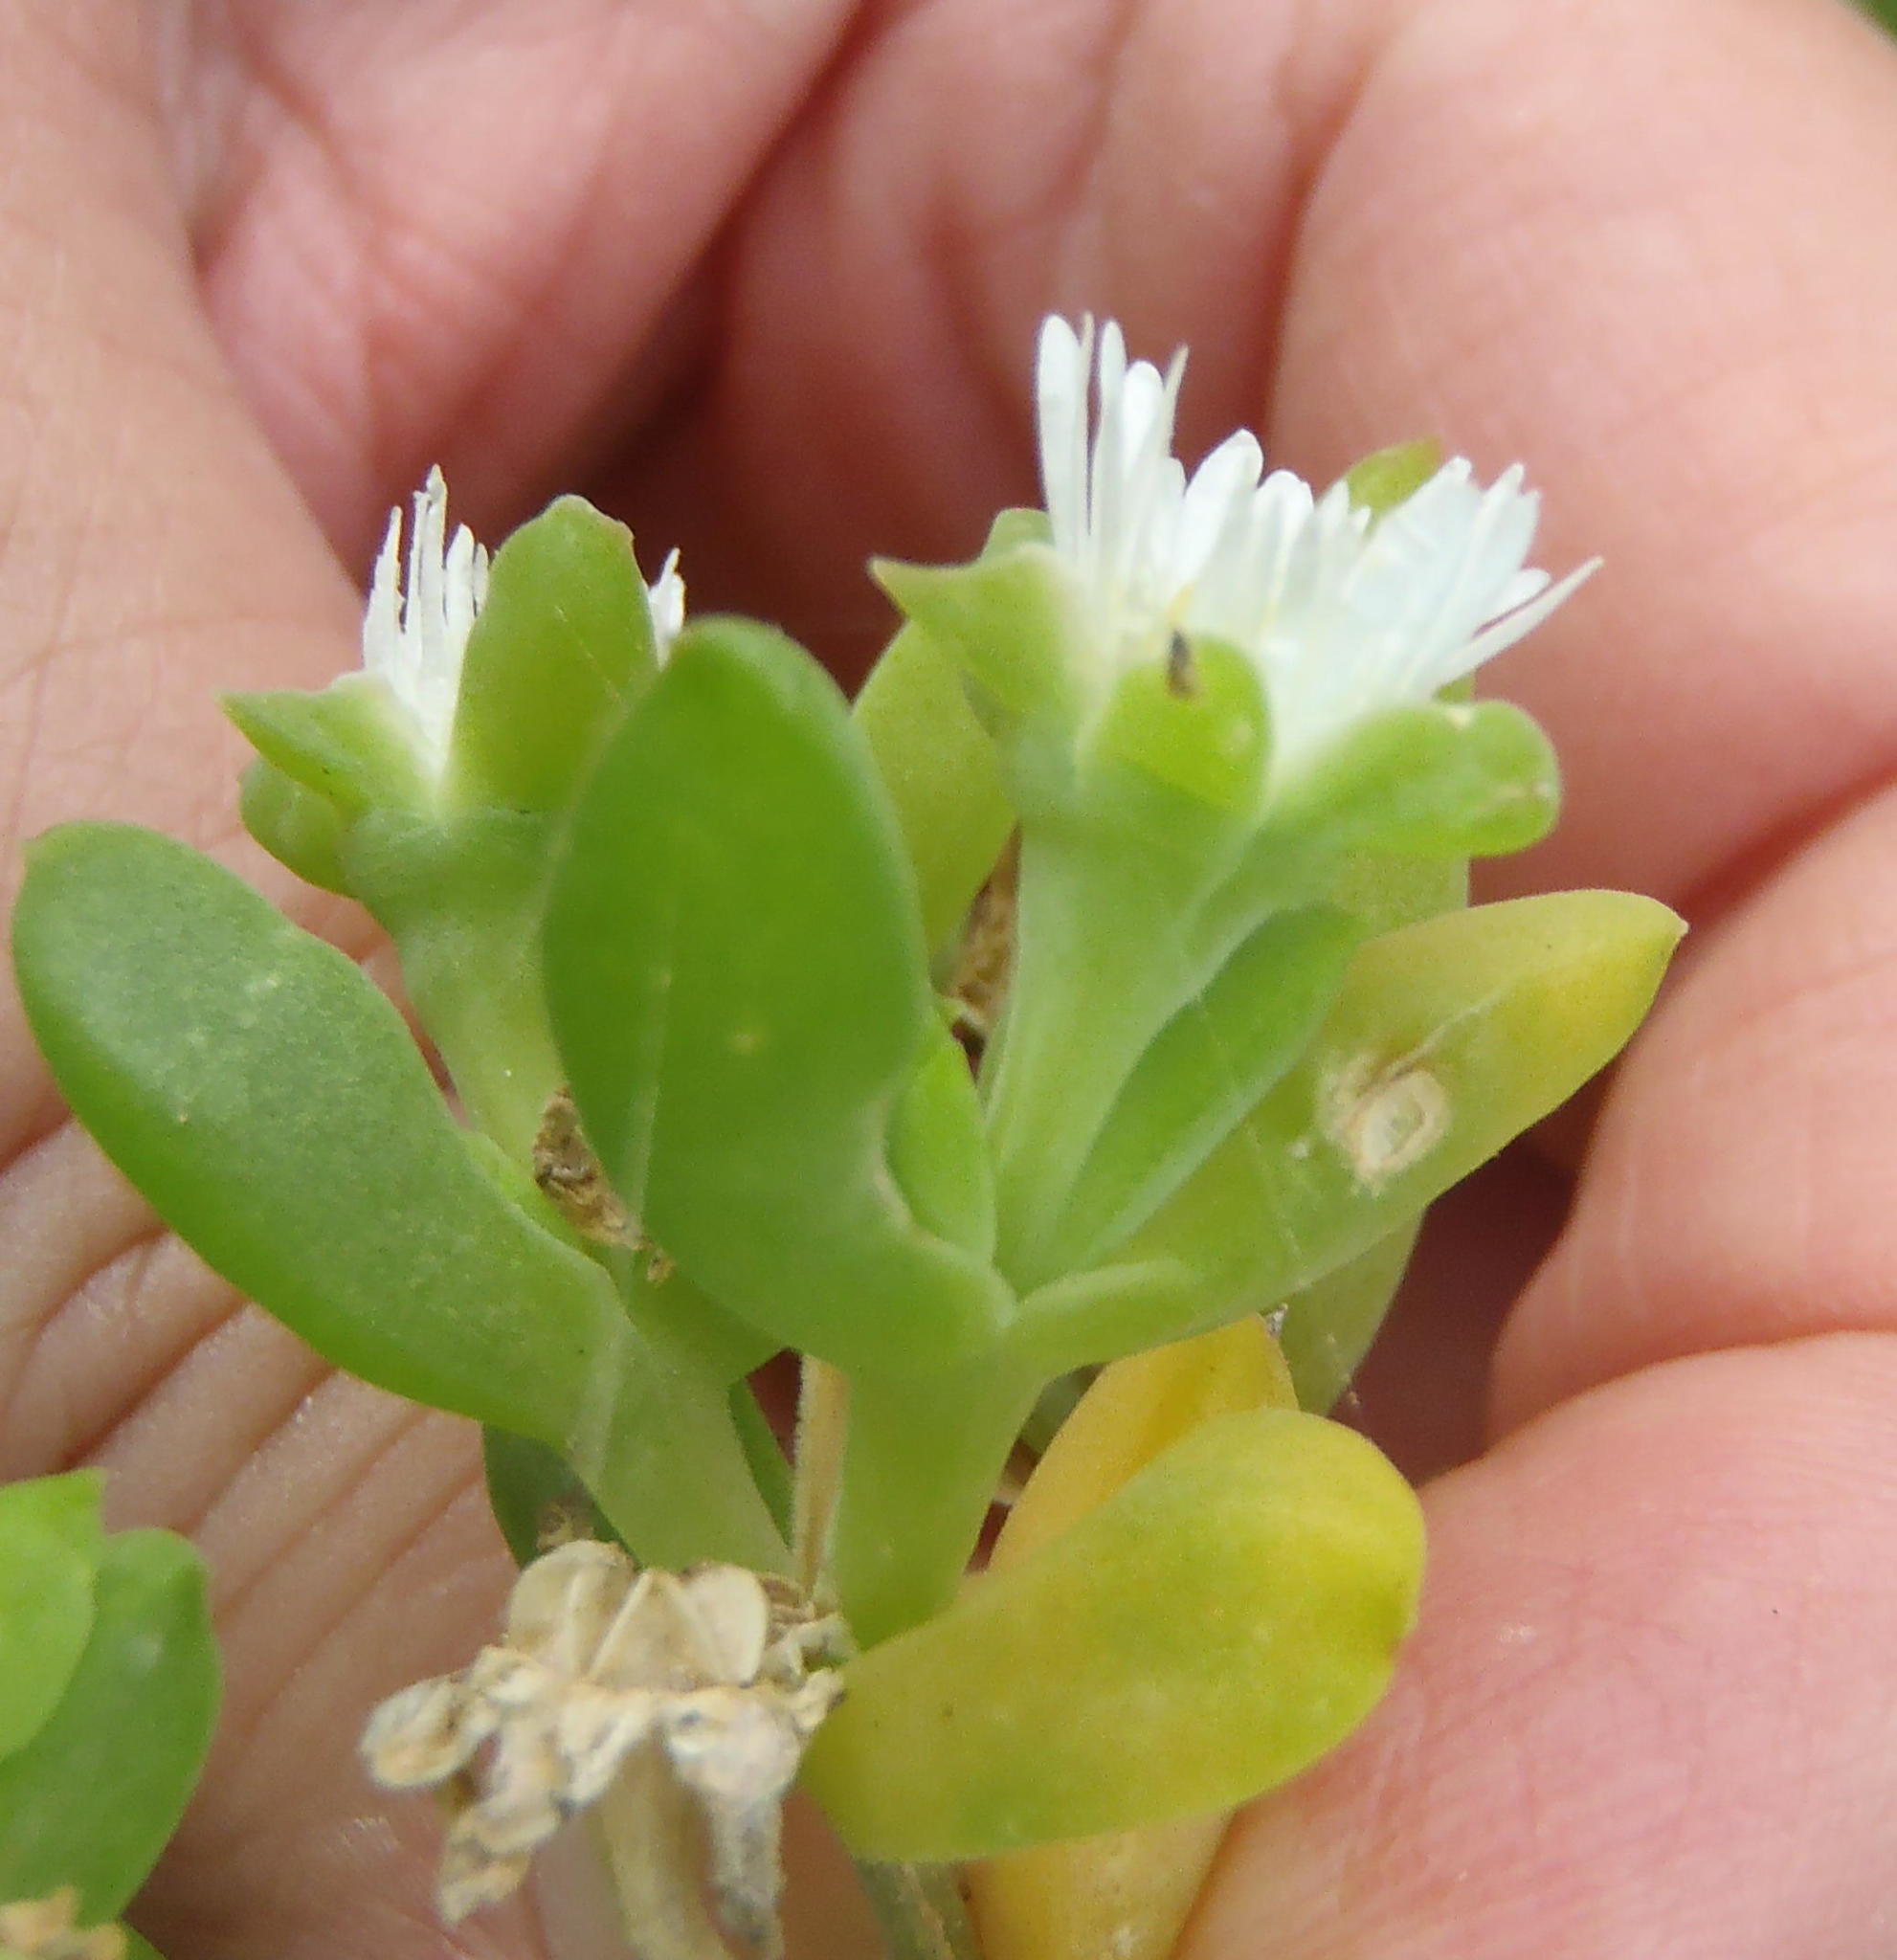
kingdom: Plantae
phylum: Tracheophyta
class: Magnoliopsida
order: Caryophyllales
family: Aizoaceae
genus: Delosperma
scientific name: Delosperma litorale
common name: Seaside delosperma
